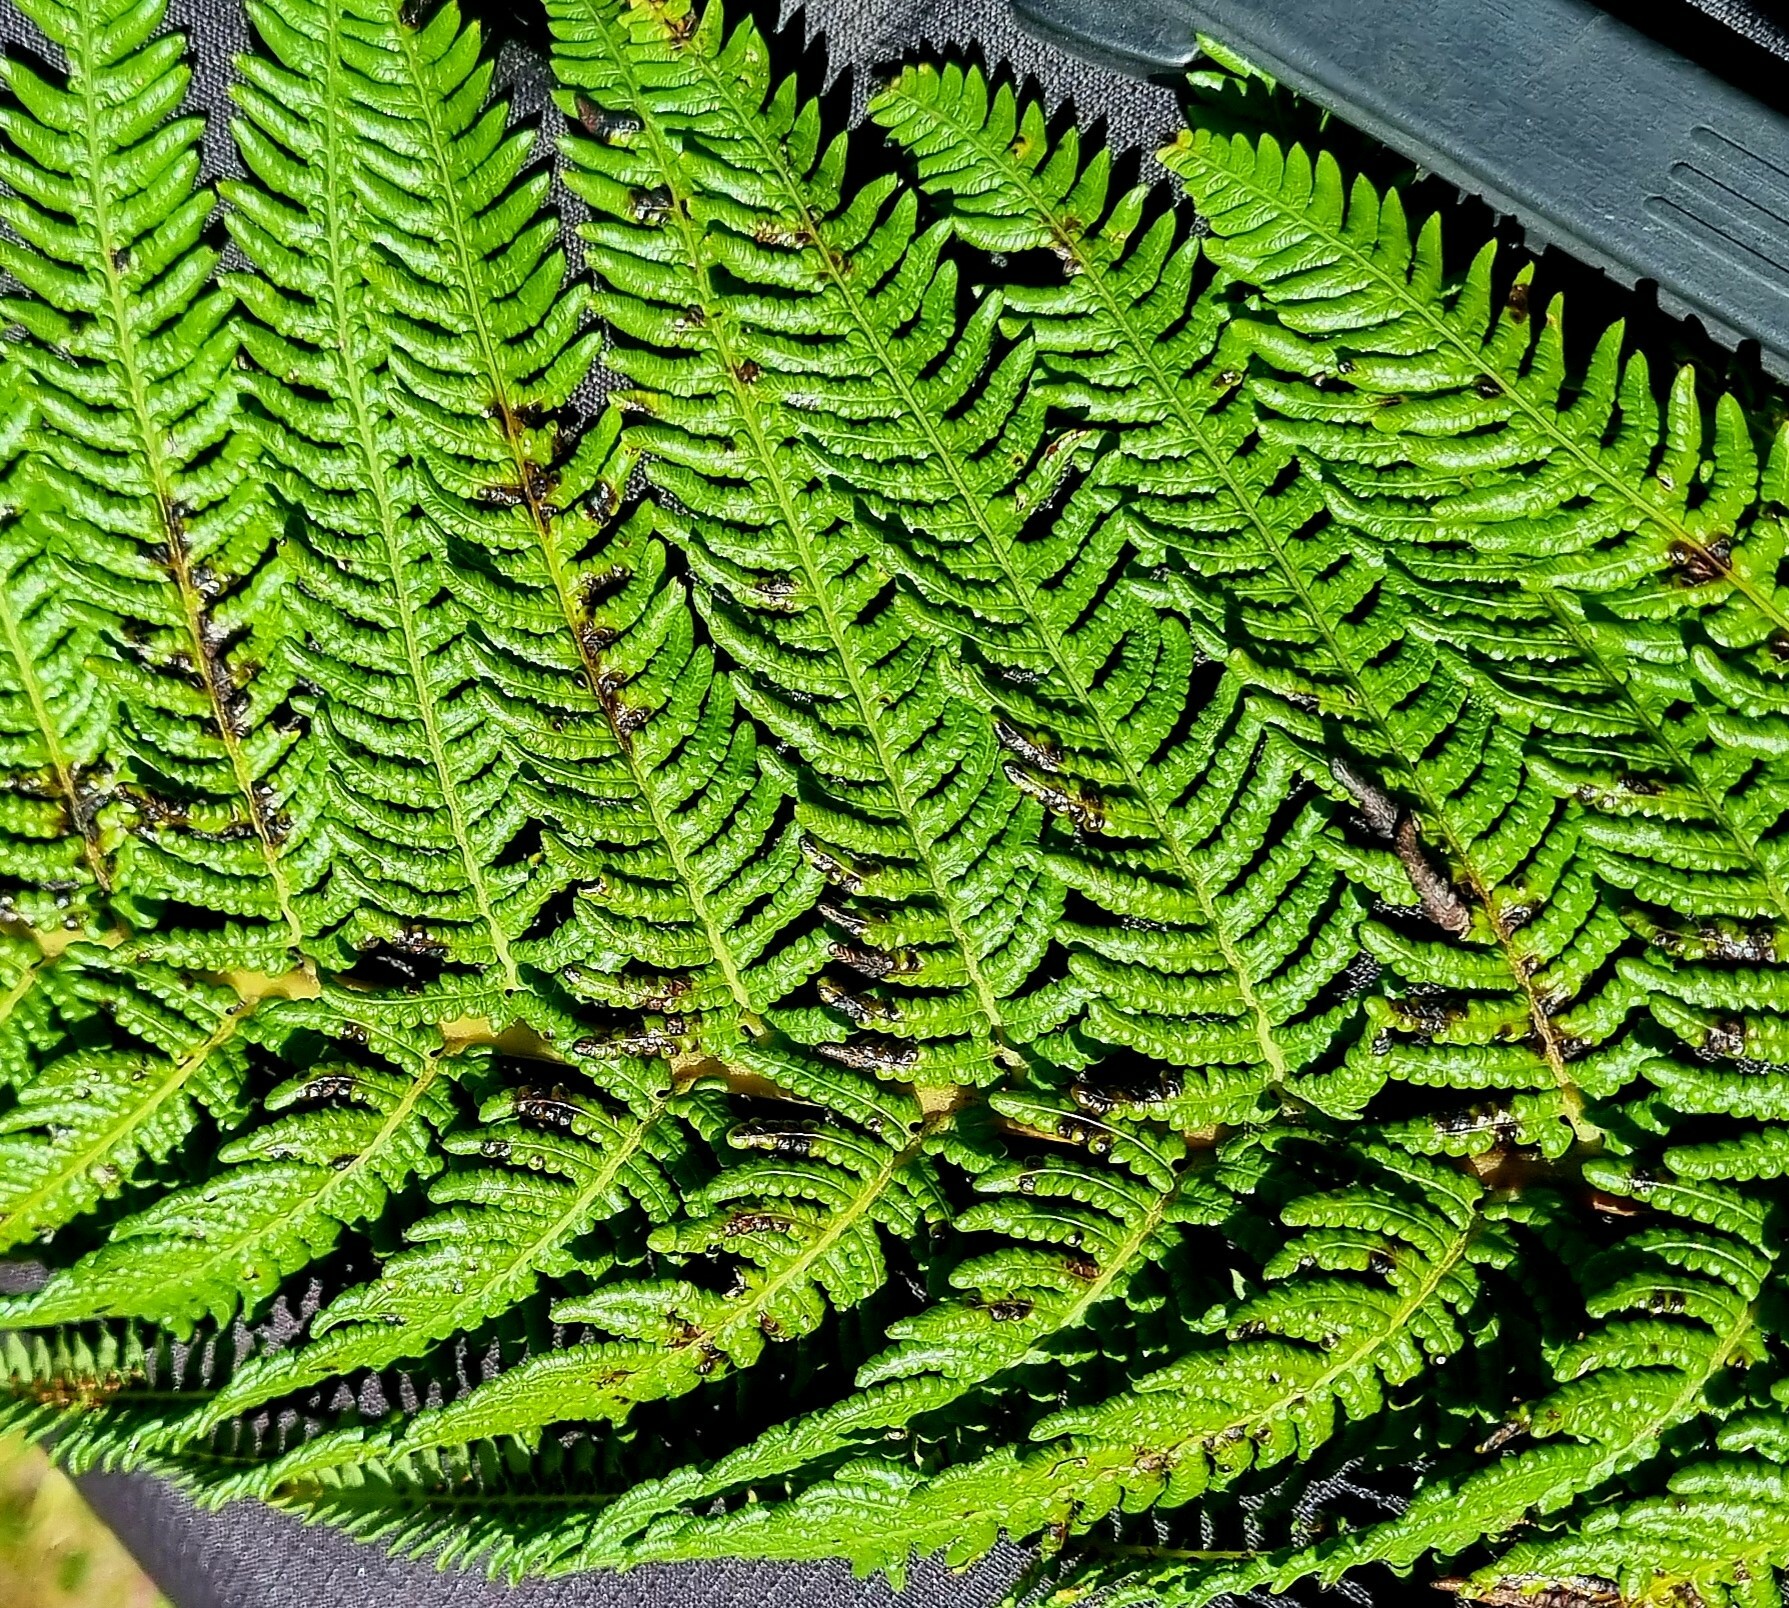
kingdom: Plantae
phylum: Tracheophyta
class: Polypodiopsida
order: Cyatheales
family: Cyatheaceae
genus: Sphaeropteris
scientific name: Sphaeropteris medullaris
